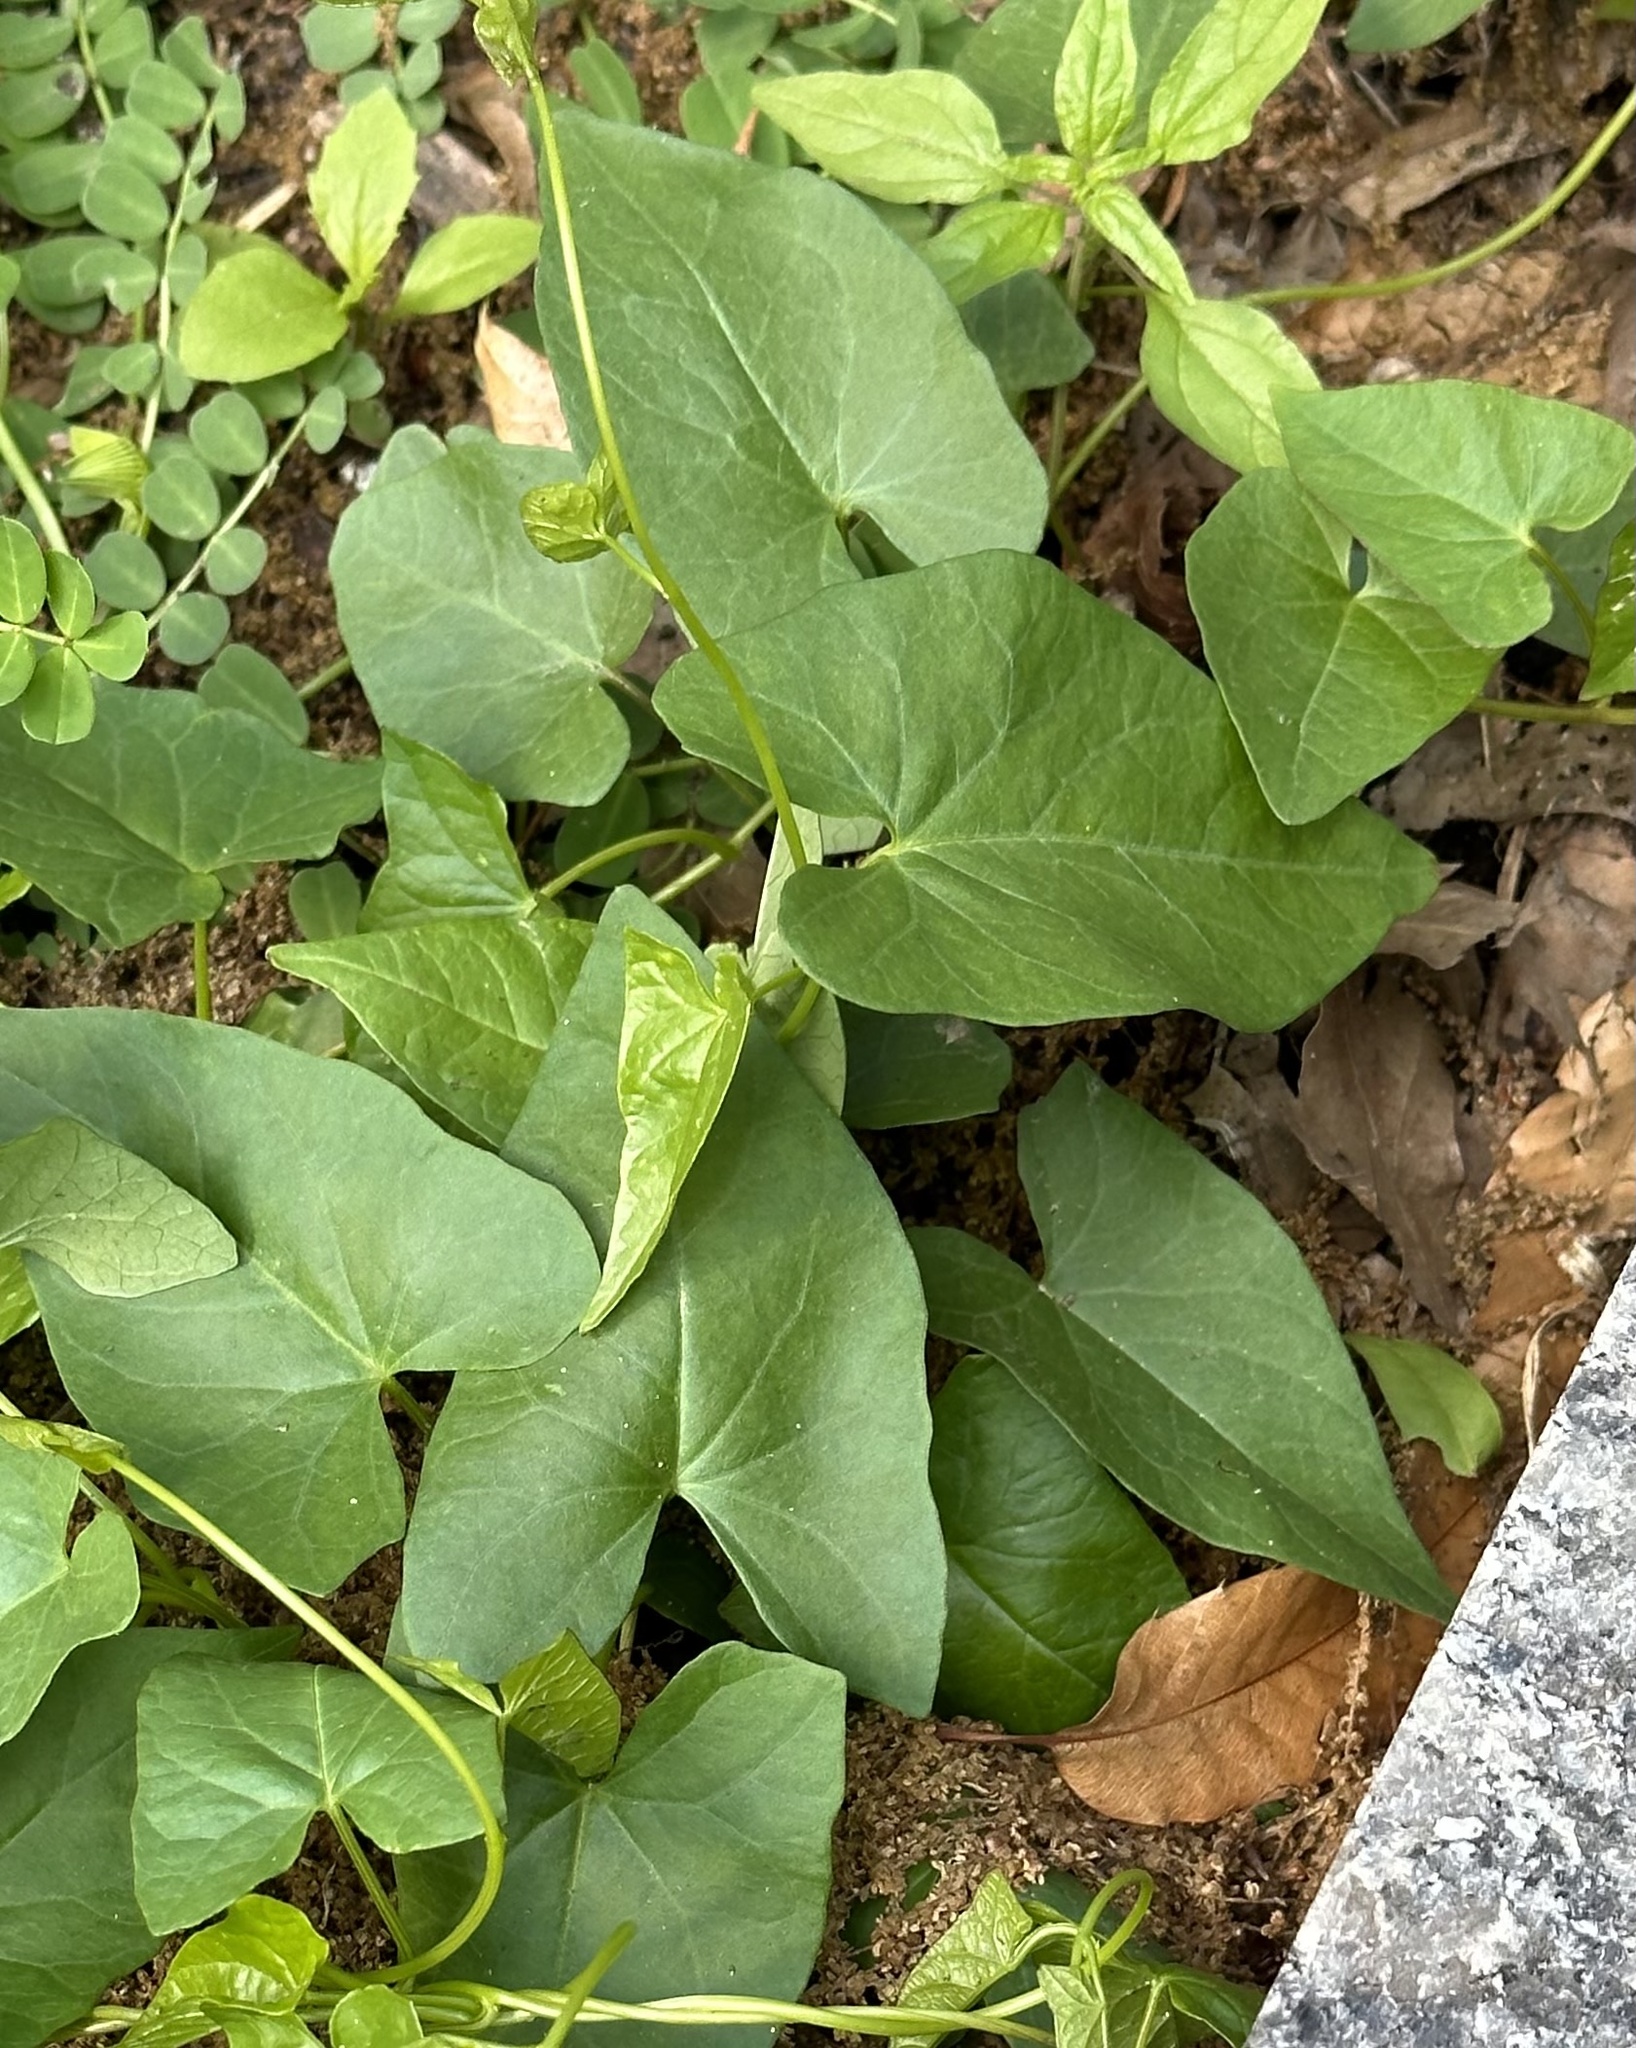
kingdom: Plantae
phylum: Tracheophyta
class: Magnoliopsida
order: Solanales
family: Convolvulaceae
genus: Calystegia
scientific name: Calystegia sepium
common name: Hedge bindweed
